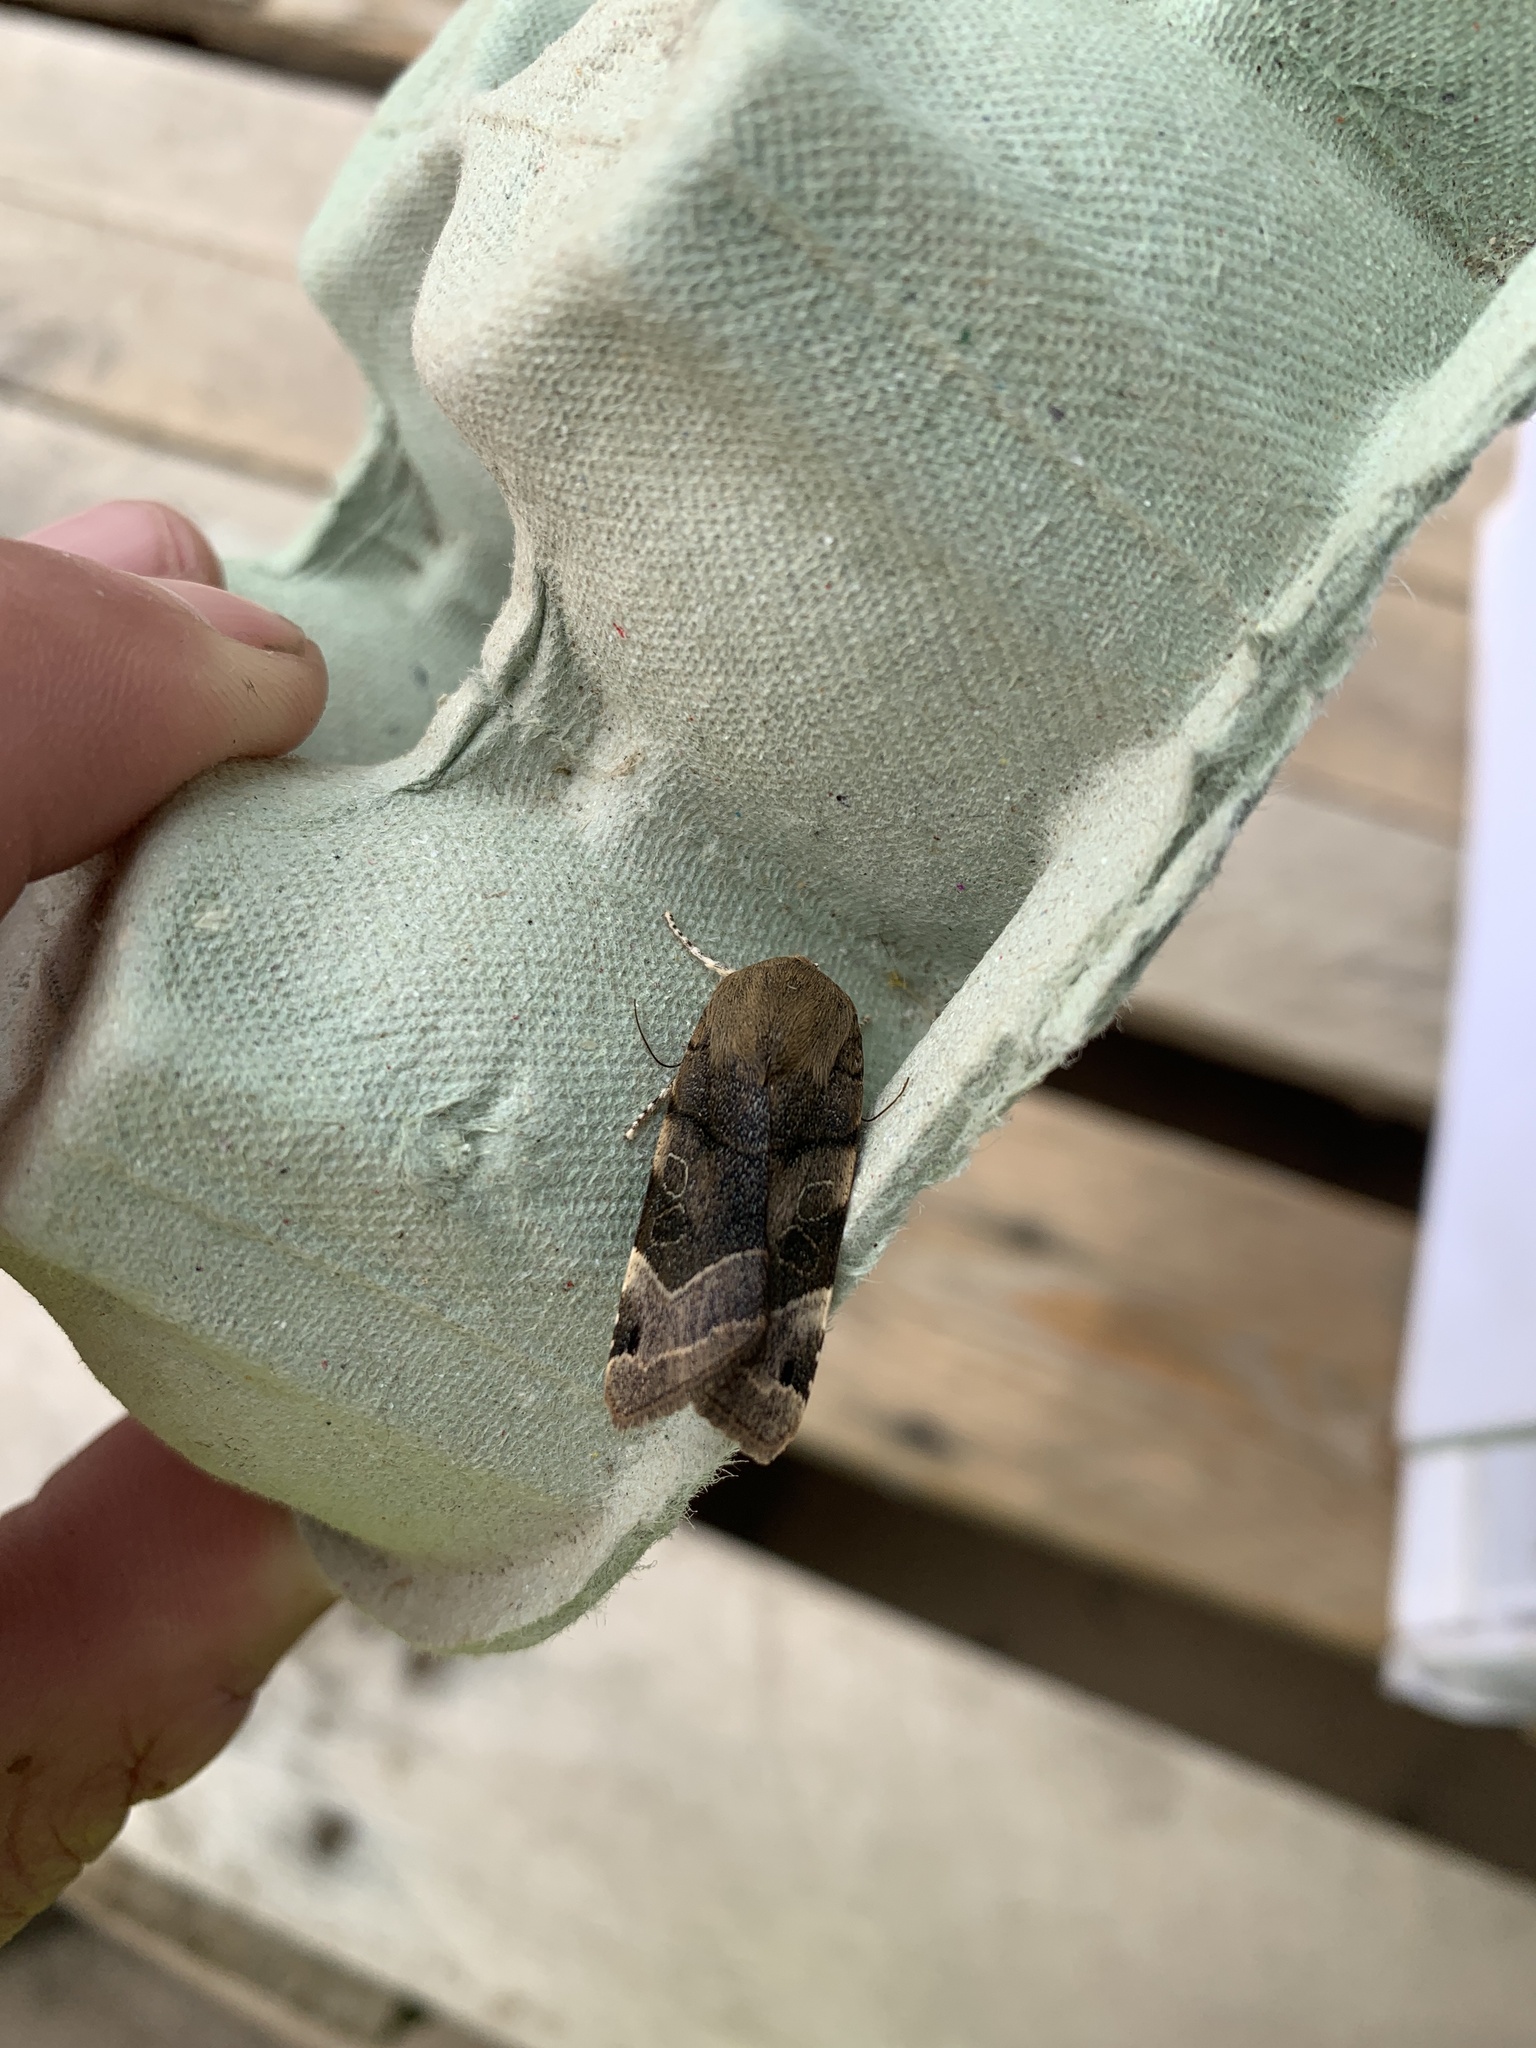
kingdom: Animalia
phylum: Arthropoda
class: Insecta
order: Lepidoptera
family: Noctuidae
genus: Noctua
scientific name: Noctua
